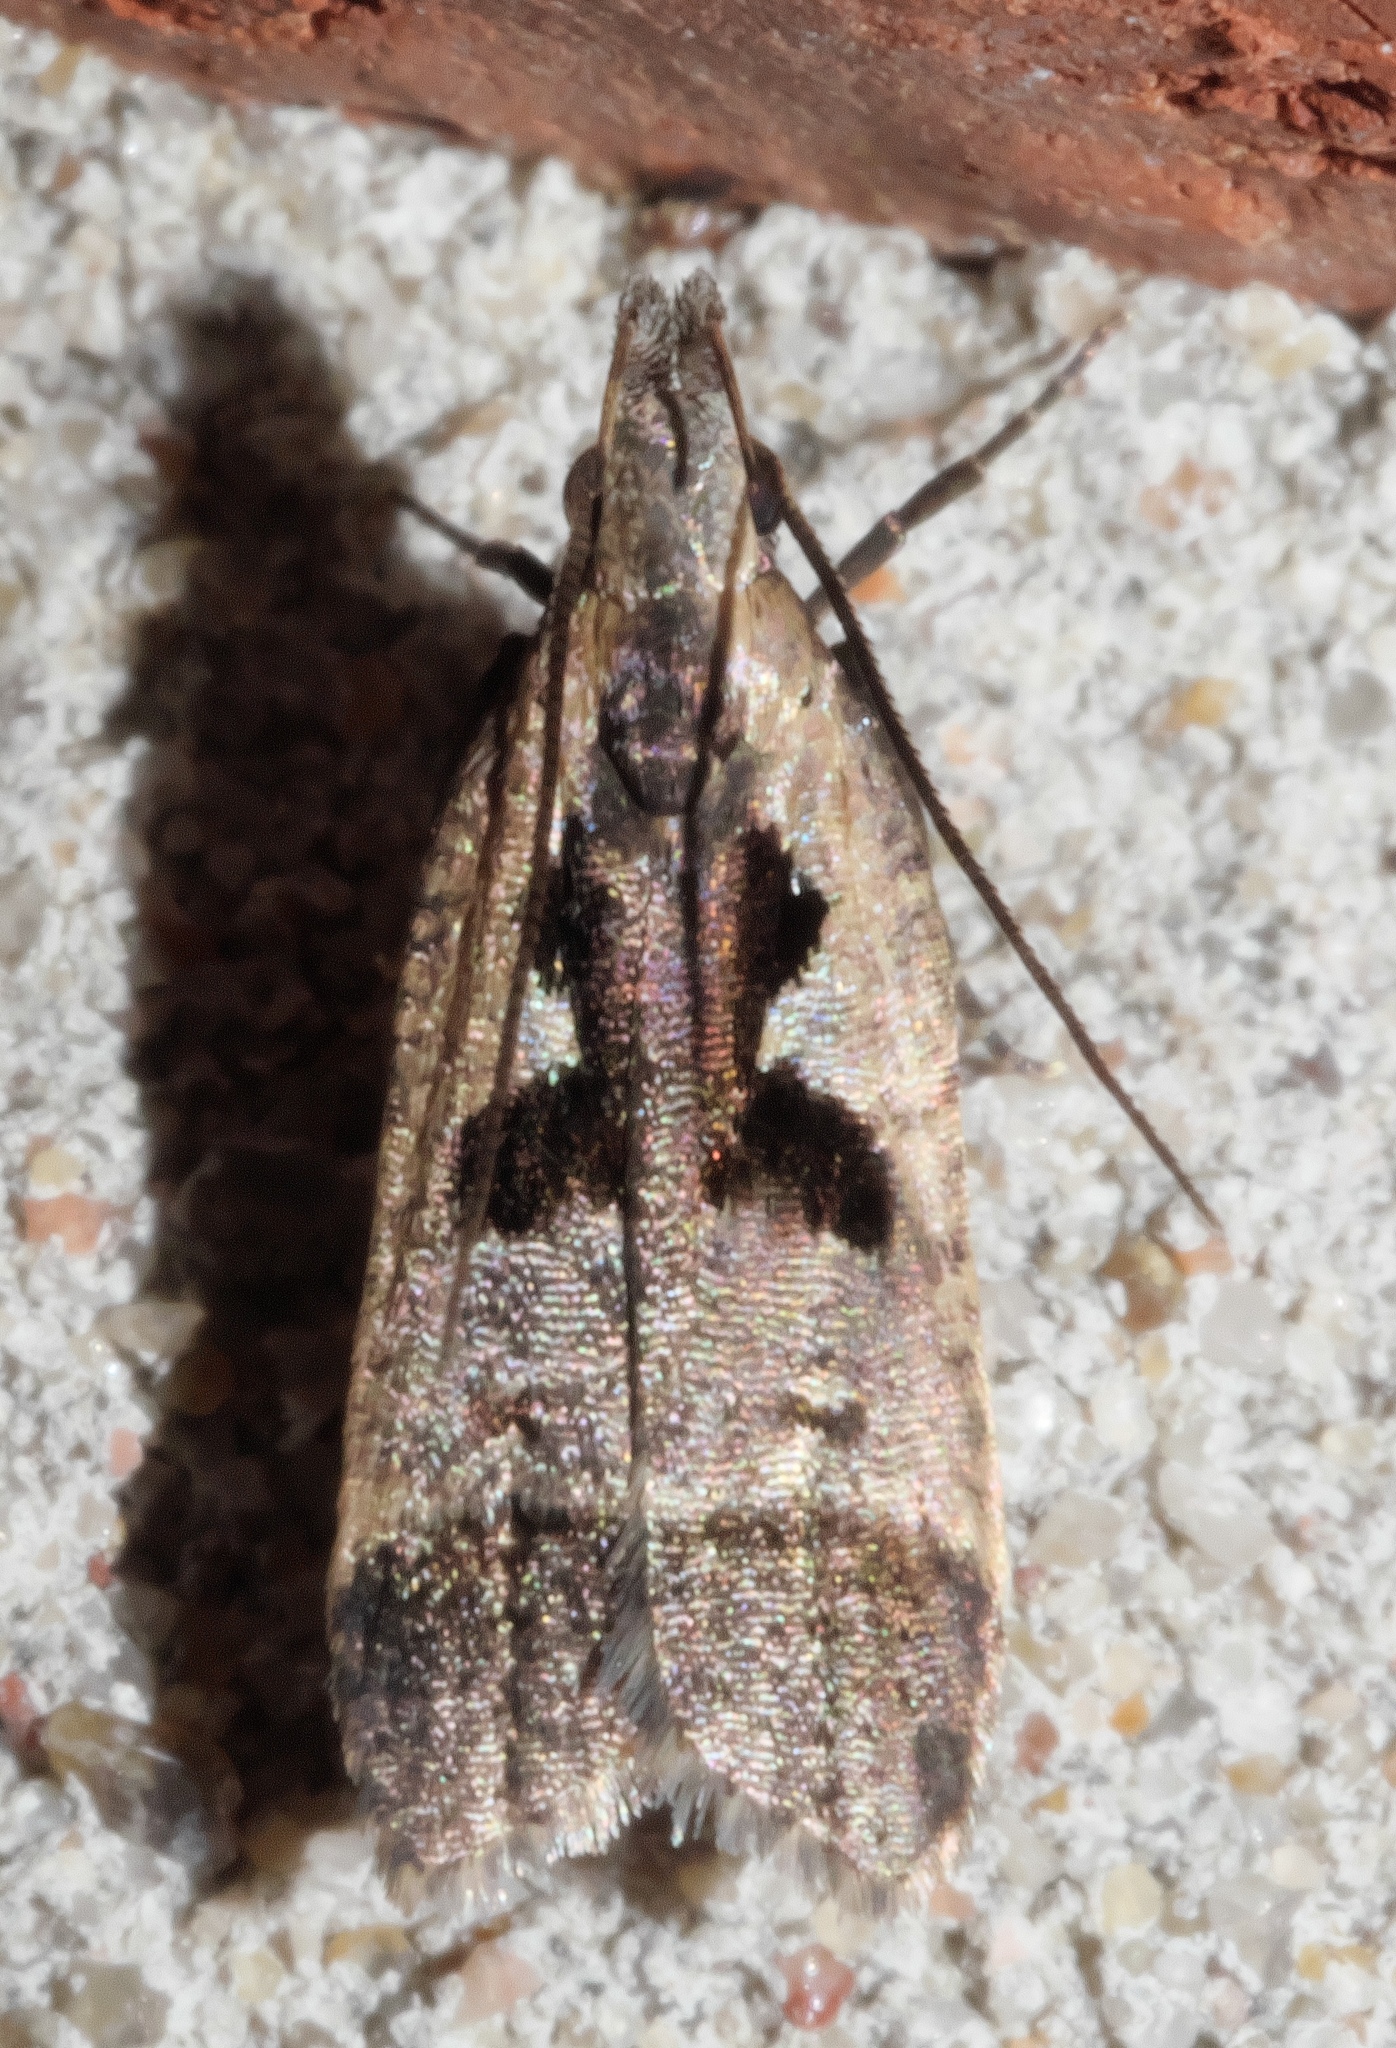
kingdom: Animalia
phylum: Arthropoda
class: Insecta
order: Lepidoptera
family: Gelechiidae
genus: Dichomeris
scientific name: Dichomeris bilobella
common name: Bilobed dichomeris moth
